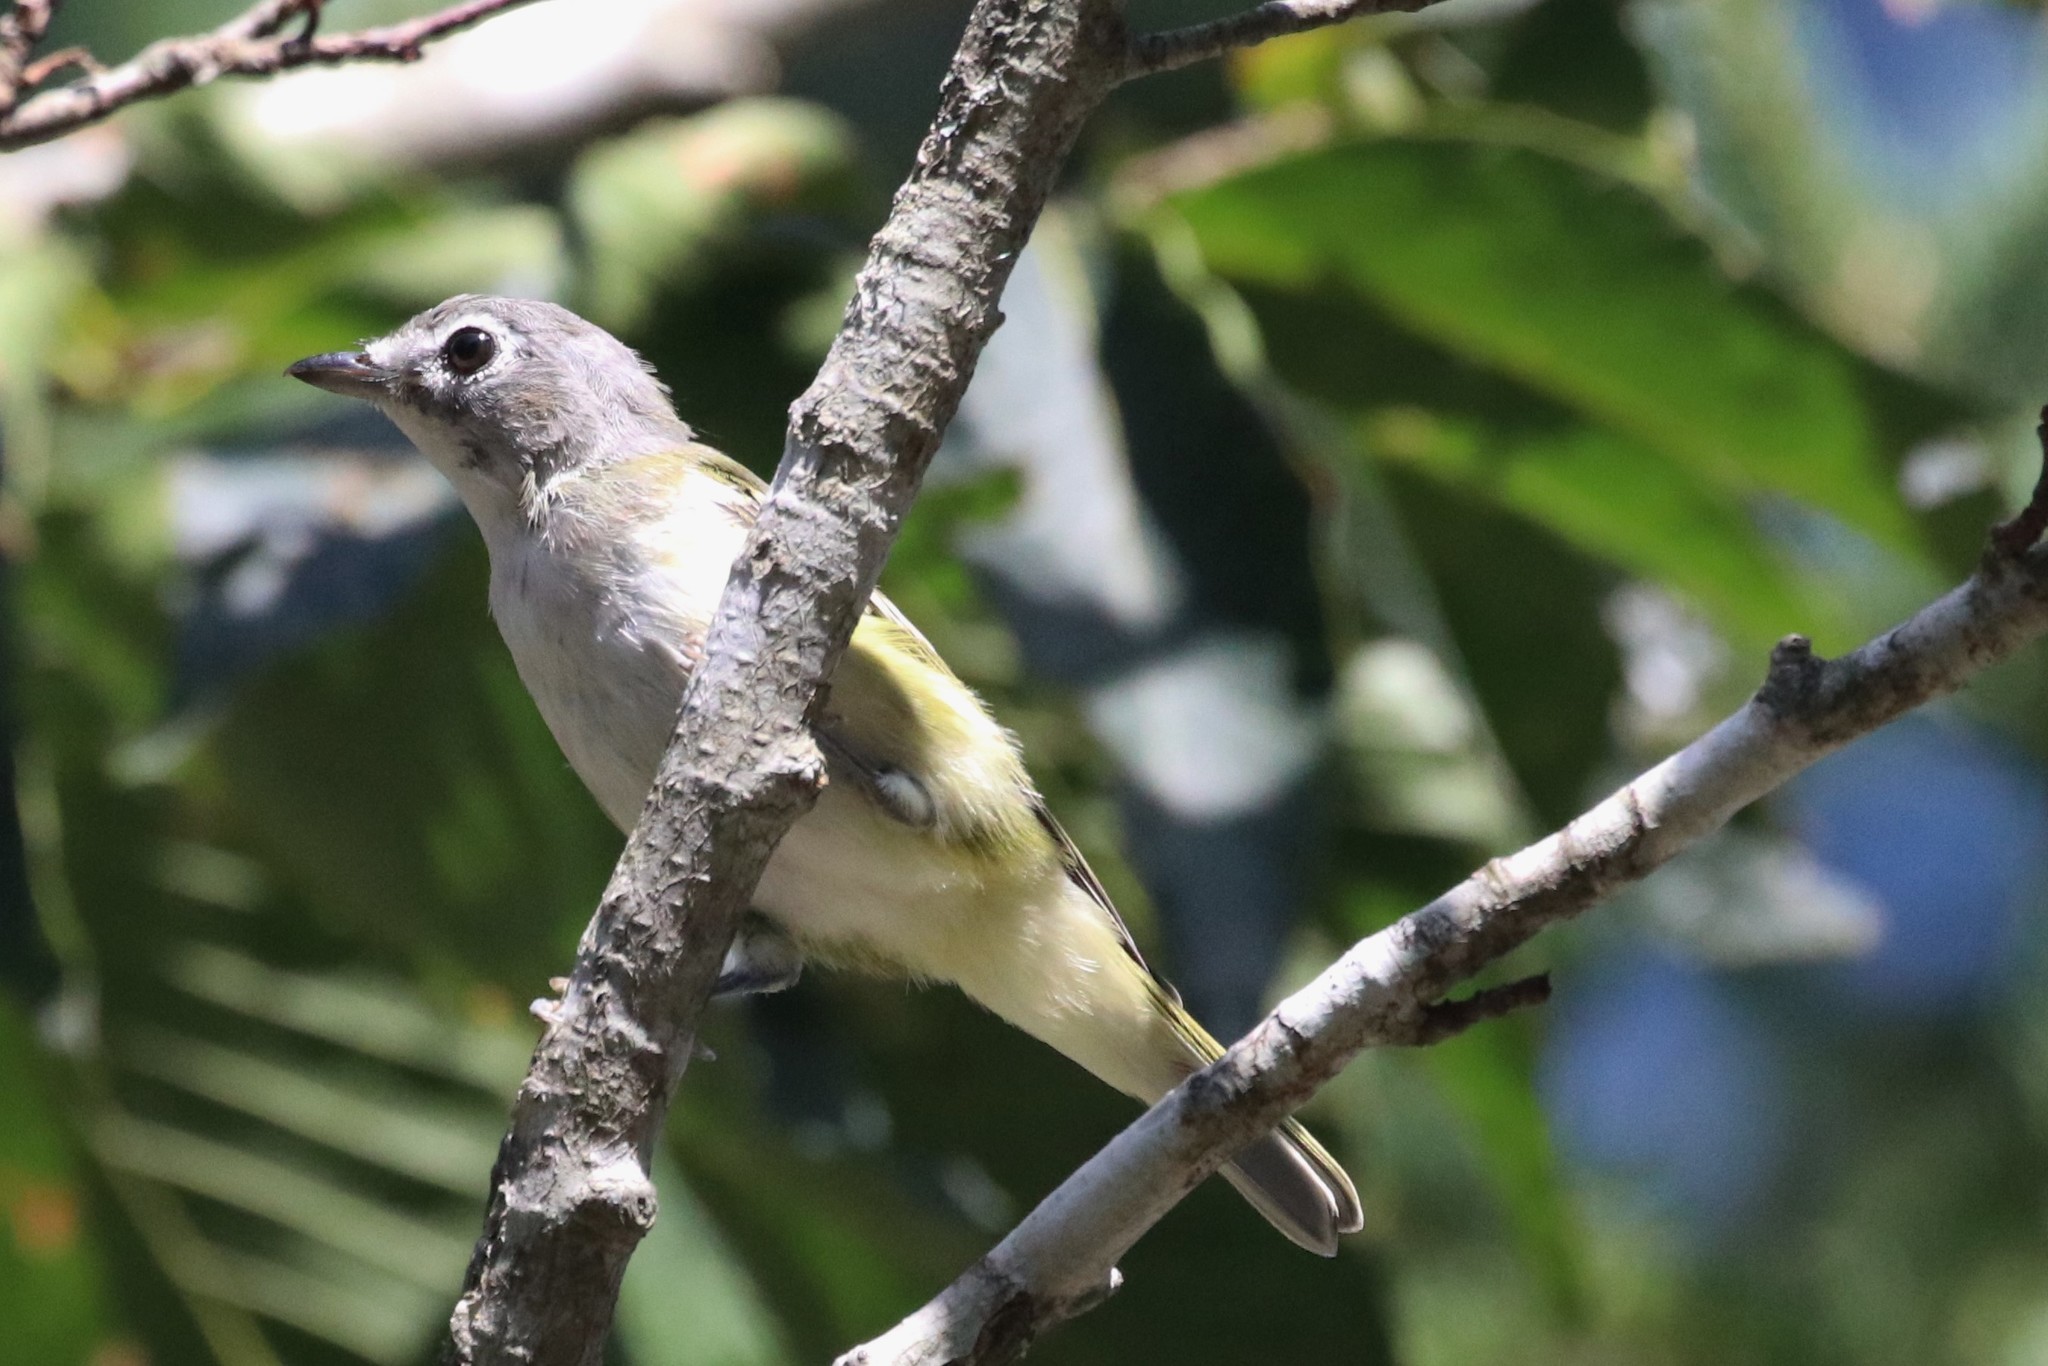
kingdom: Animalia
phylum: Chordata
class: Aves
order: Passeriformes
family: Vireonidae
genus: Vireo
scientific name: Vireo solitarius
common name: Blue-headed vireo
